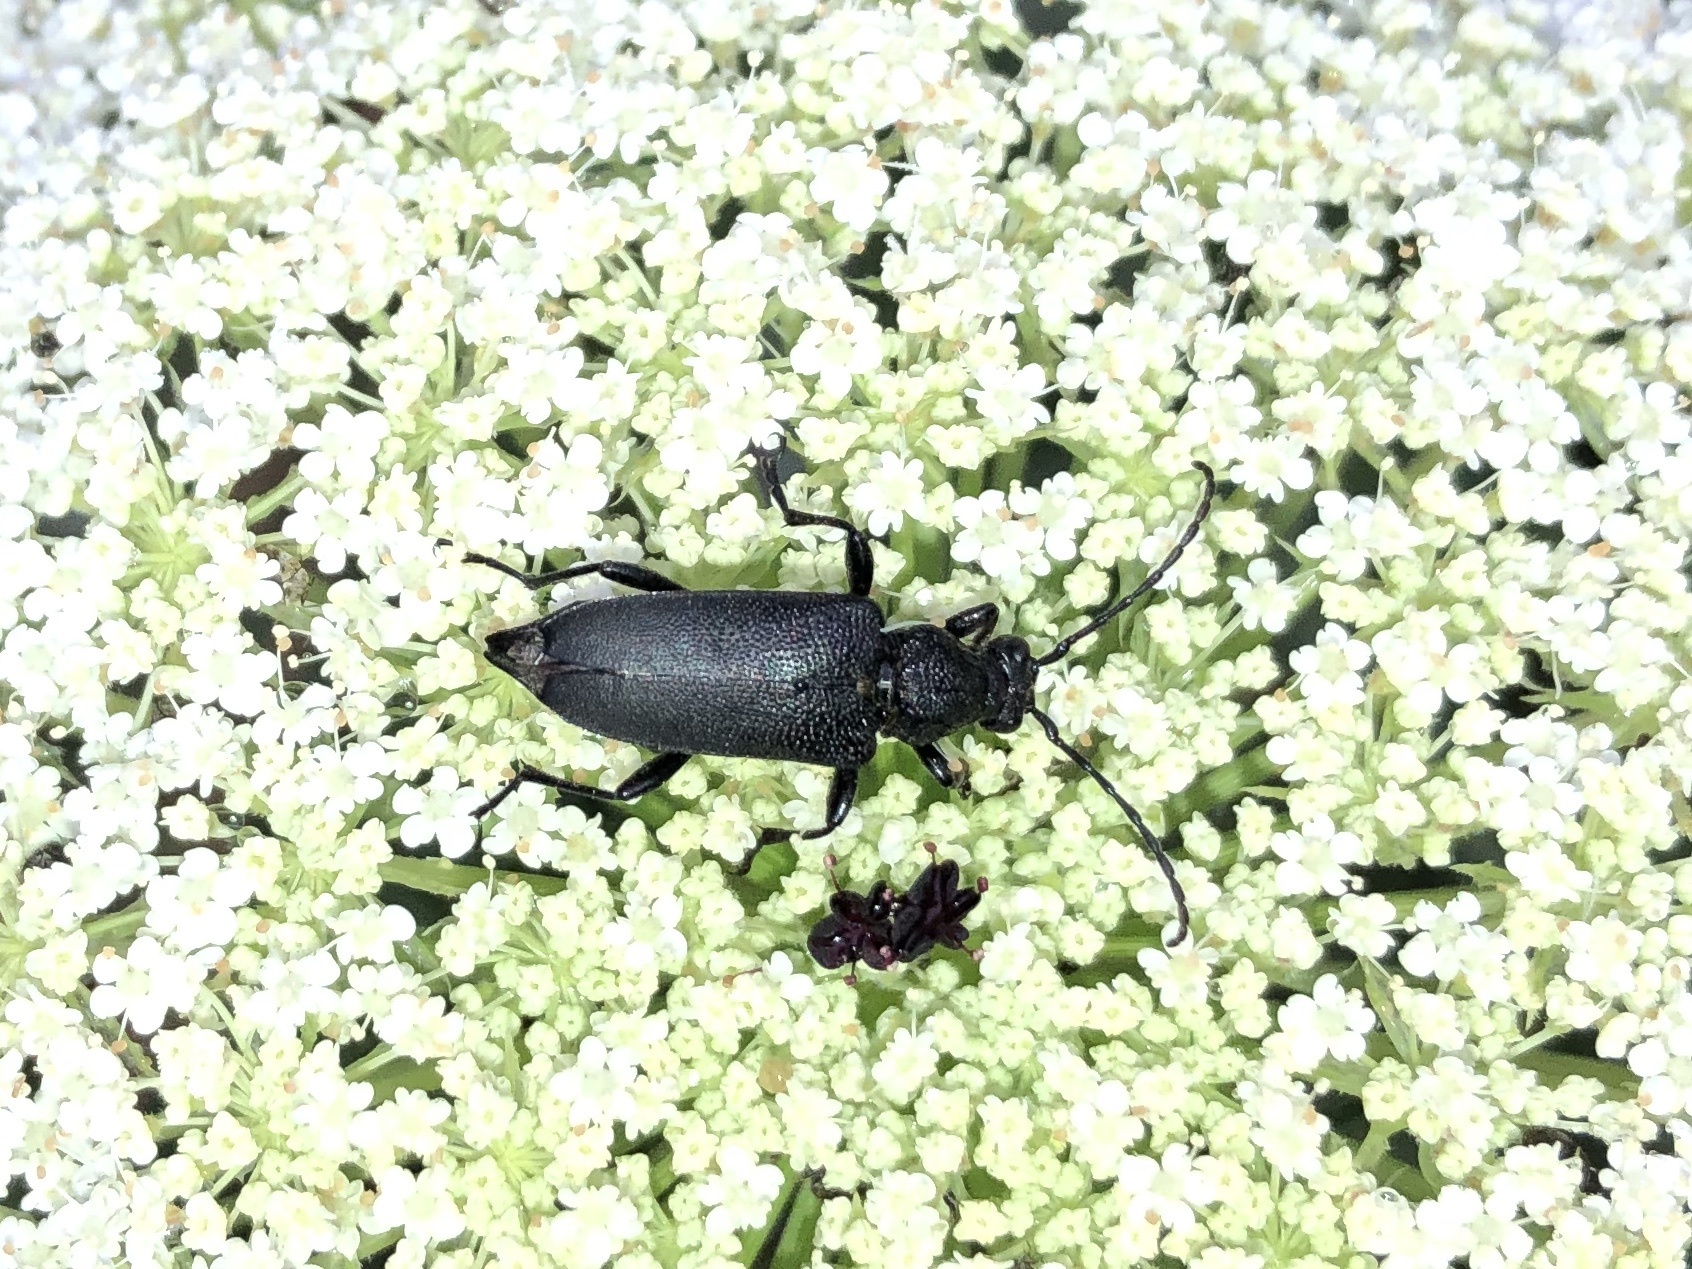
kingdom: Animalia
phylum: Arthropoda
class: Insecta
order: Coleoptera
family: Cerambycidae
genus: Stictoleptura
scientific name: Stictoleptura scutellata
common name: Large black longhorn beetle
